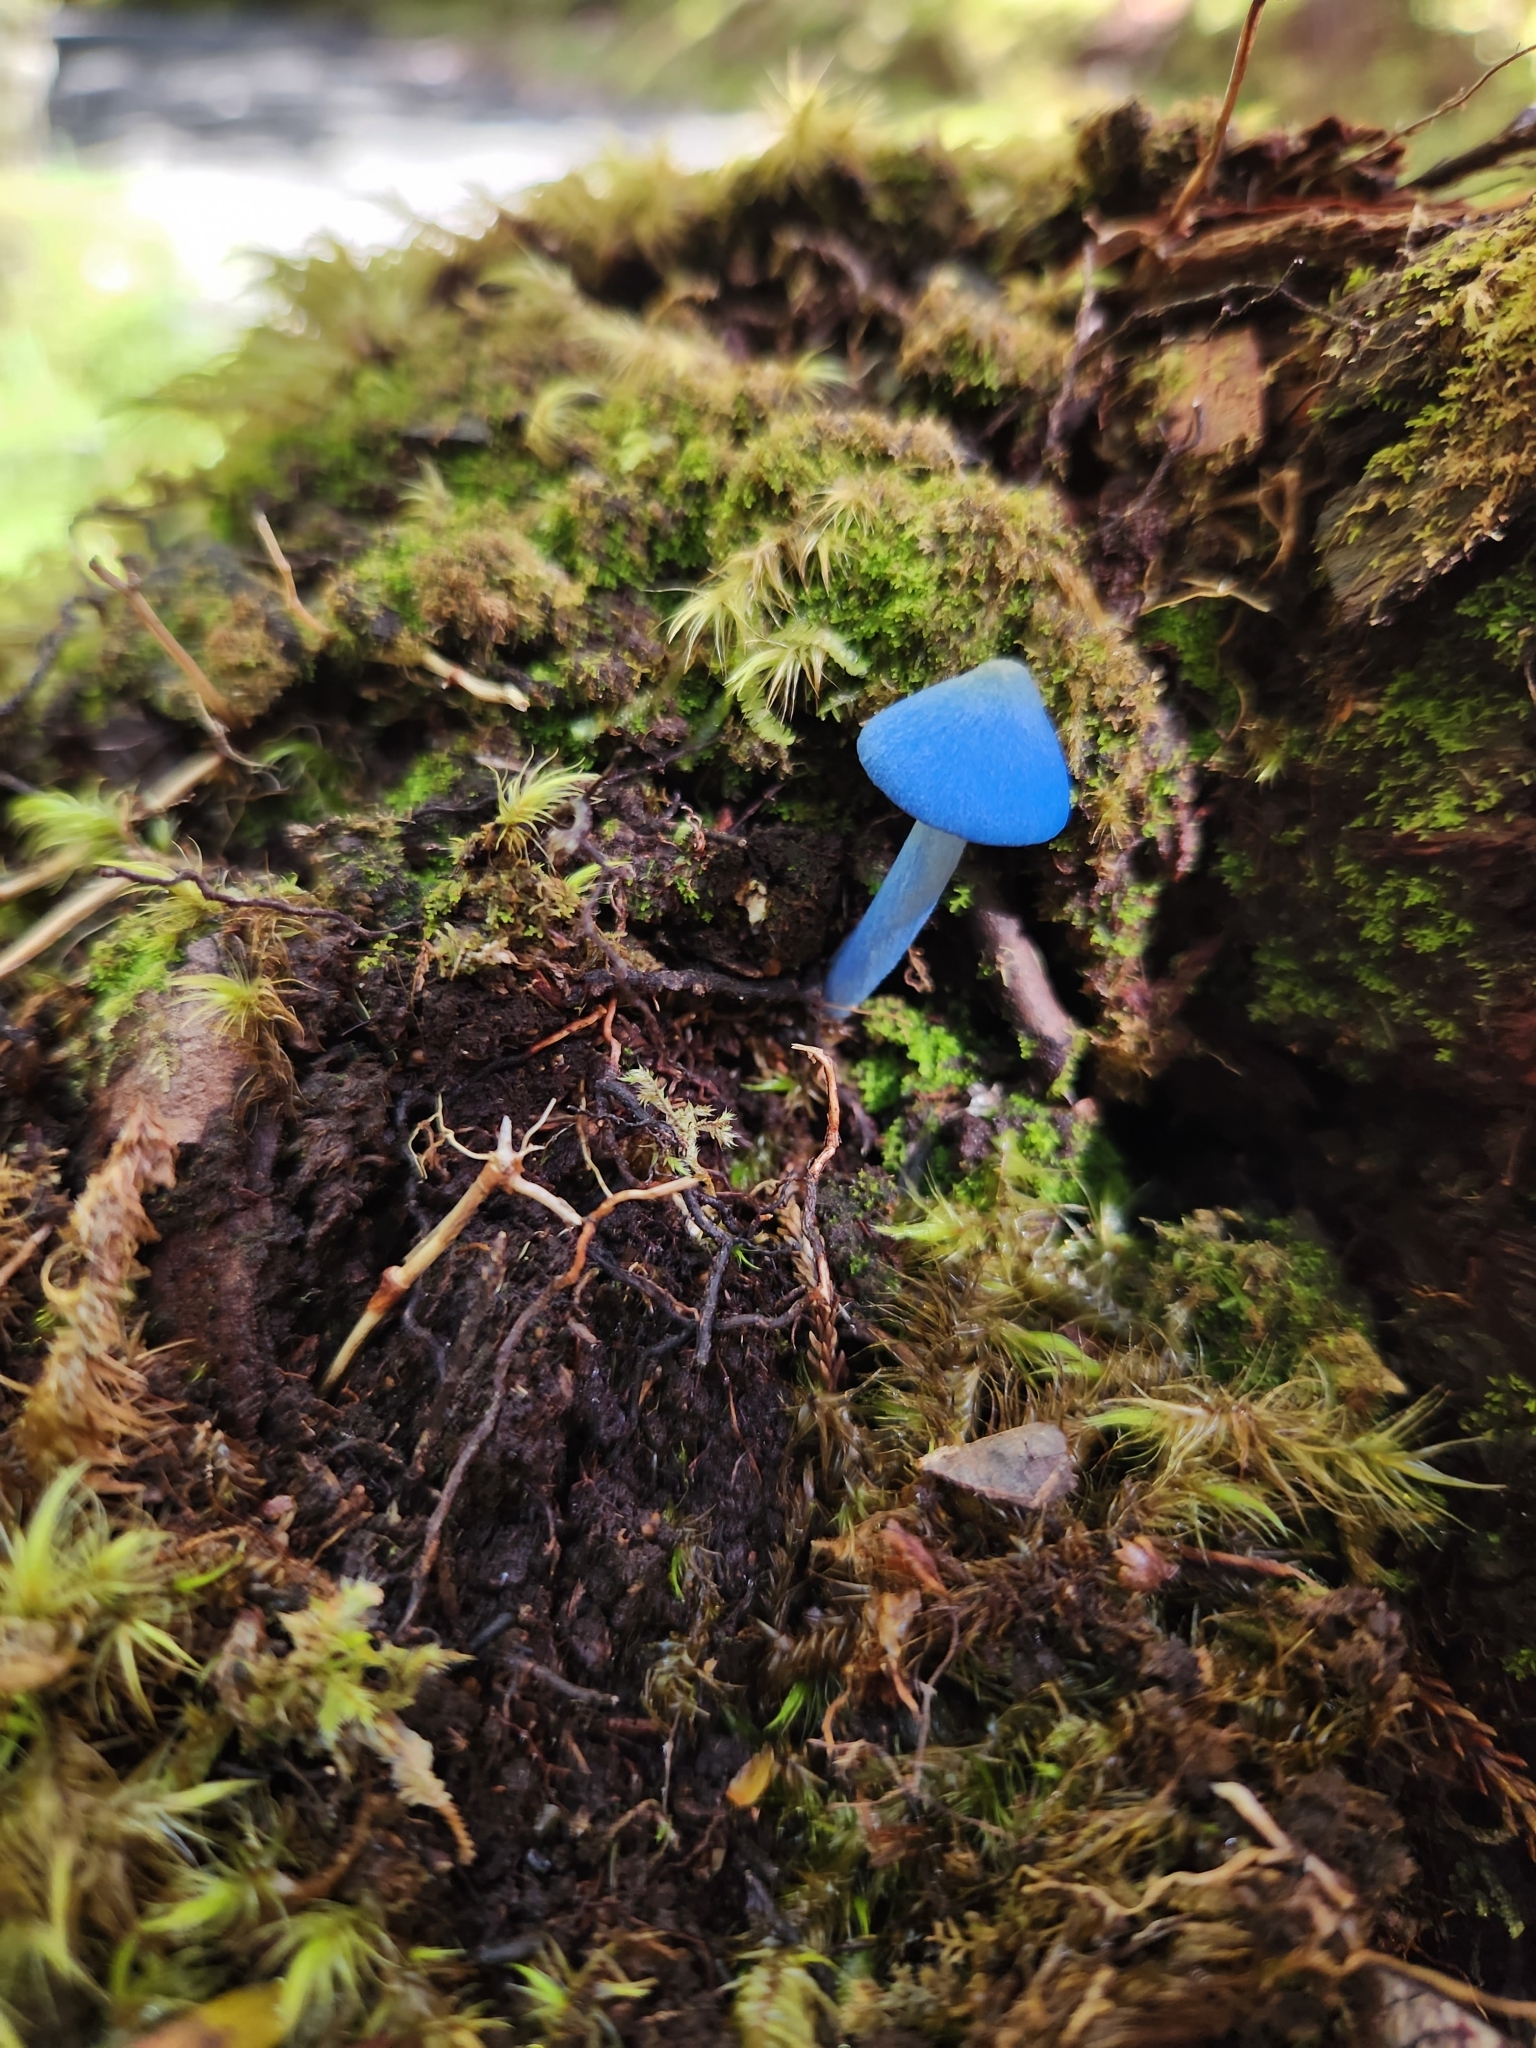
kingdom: Fungi
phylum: Basidiomycota
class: Agaricomycetes
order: Agaricales
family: Entolomataceae
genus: Entoloma
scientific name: Entoloma hochstetteri
